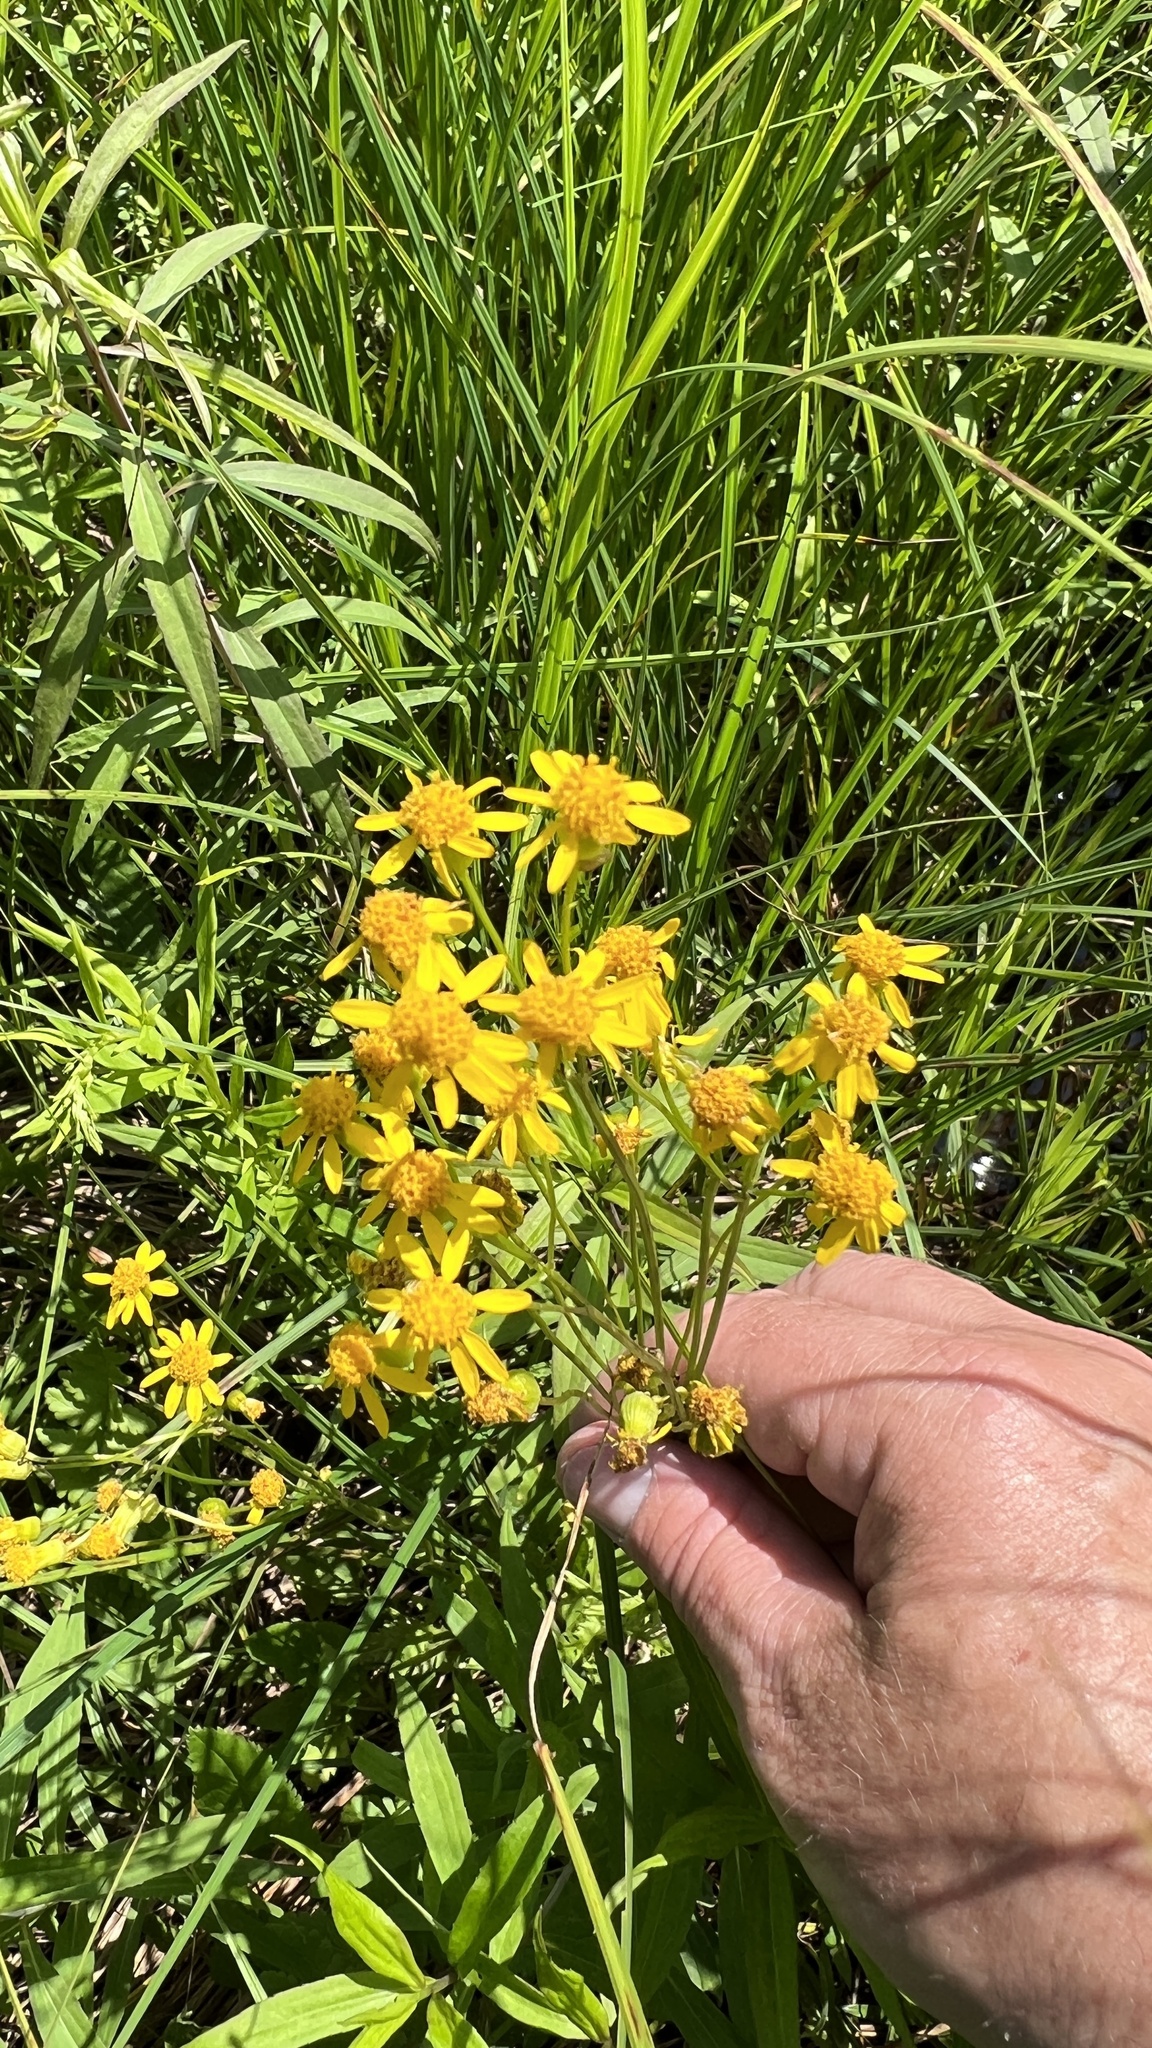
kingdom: Plantae
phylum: Tracheophyta
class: Magnoliopsida
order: Asterales
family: Asteraceae
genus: Packera
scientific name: Packera schweinitziana
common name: Schweinitz's ragwort
